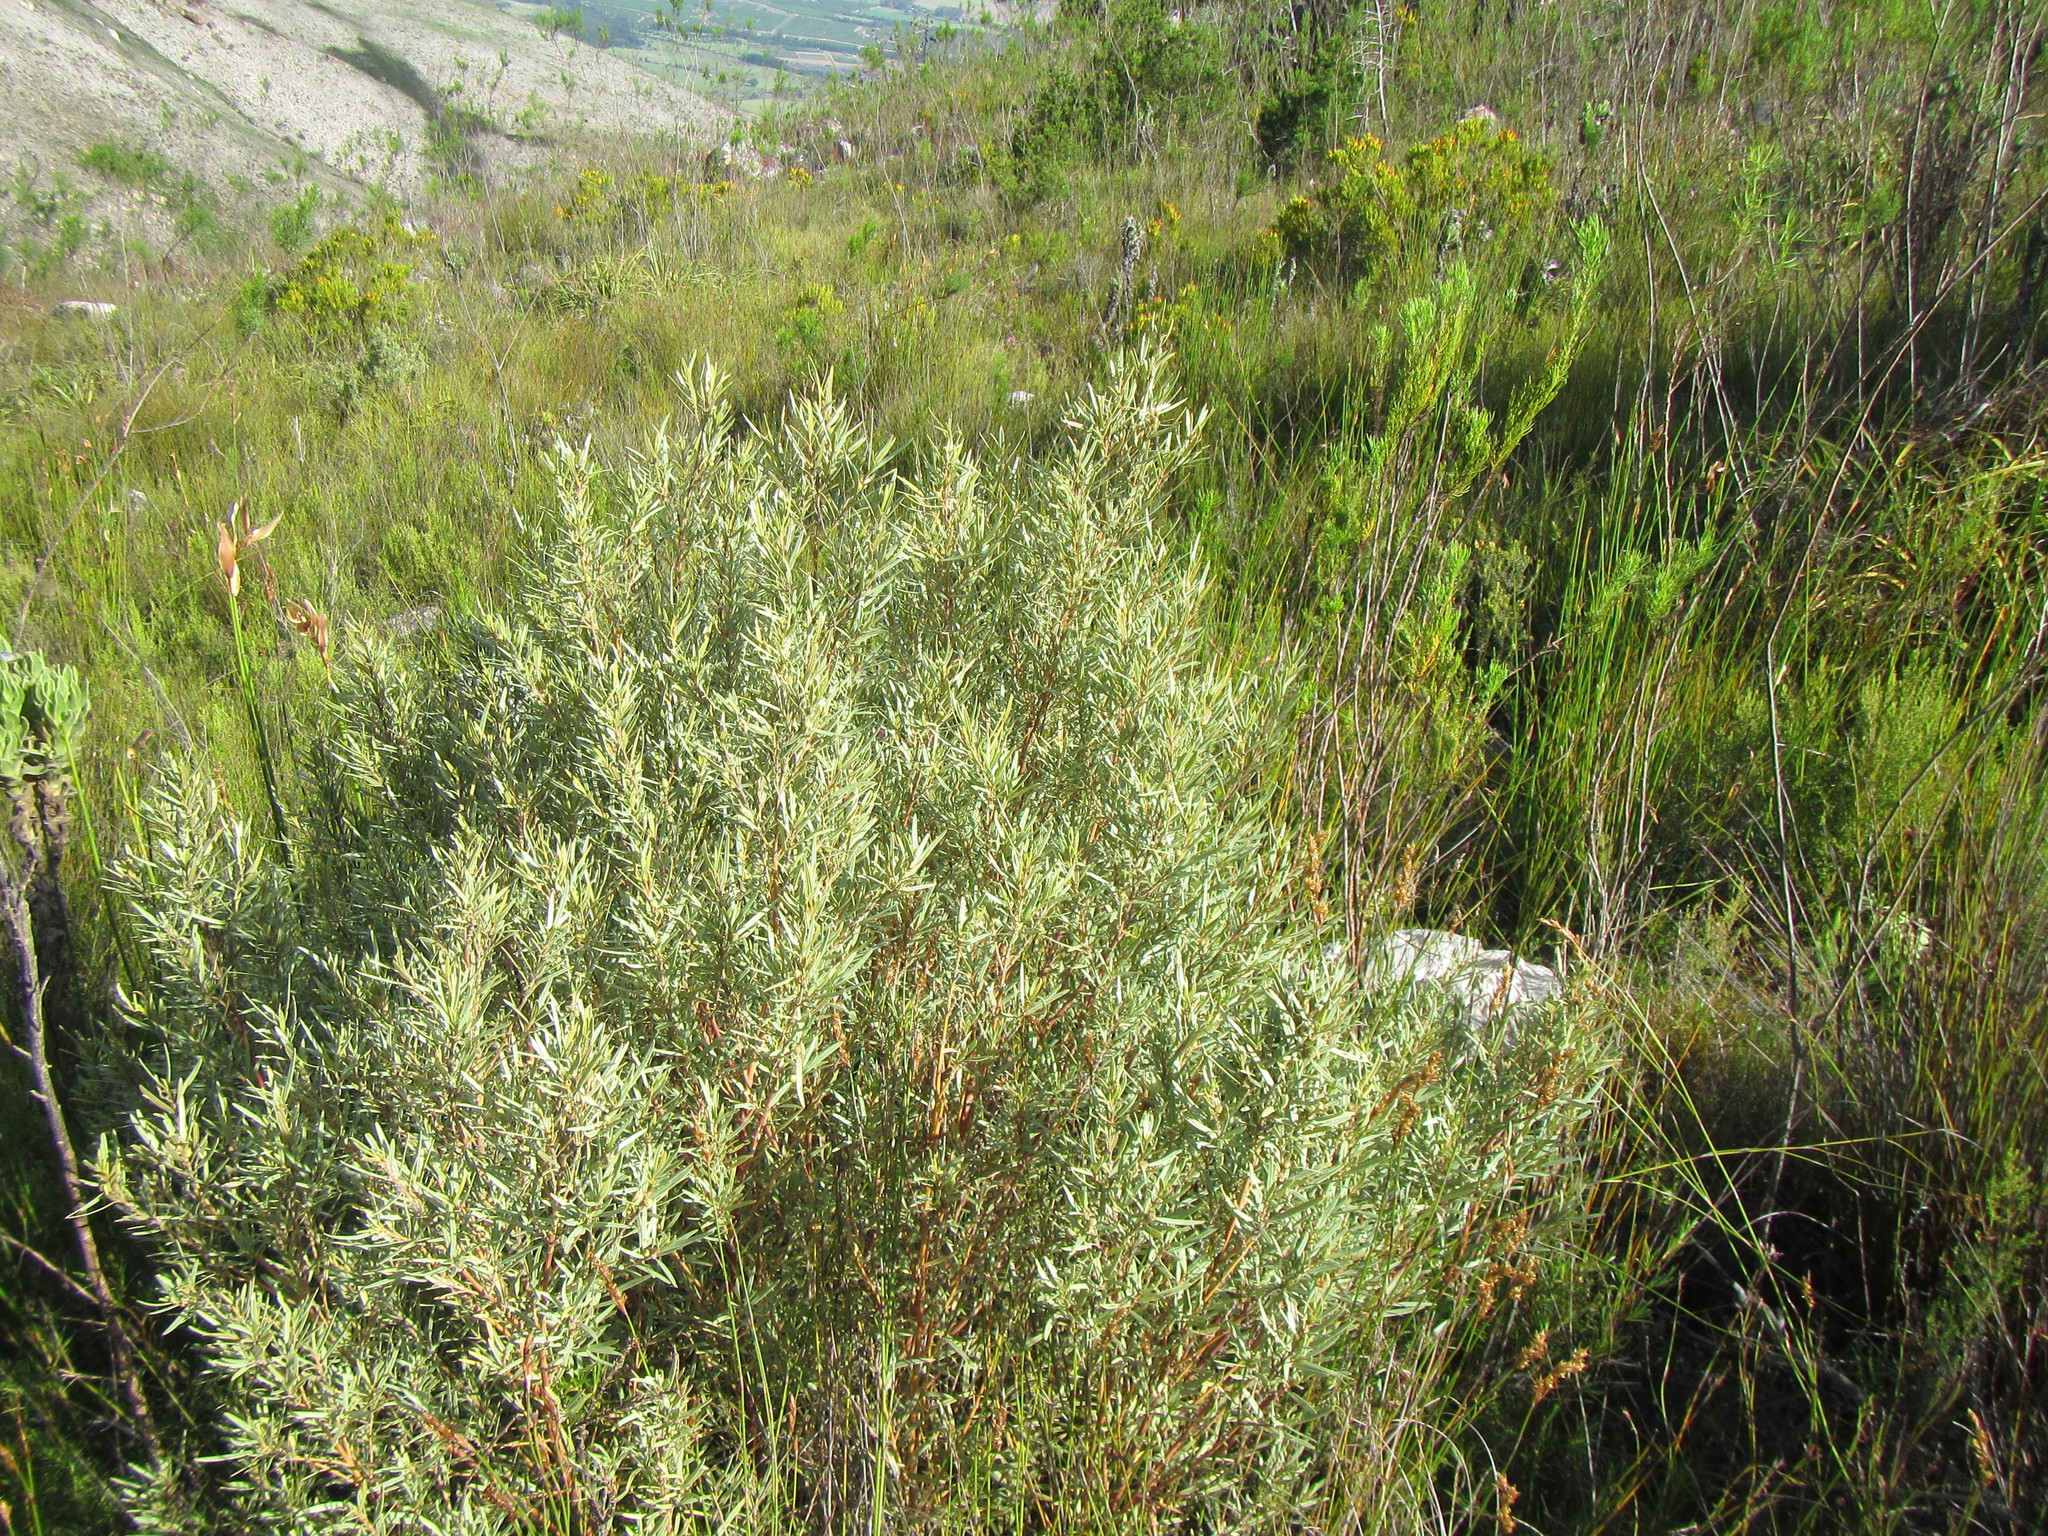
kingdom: Plantae
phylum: Tracheophyta
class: Magnoliopsida
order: Cornales
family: Grubbiaceae
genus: Grubbia
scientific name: Grubbia tomentosa
